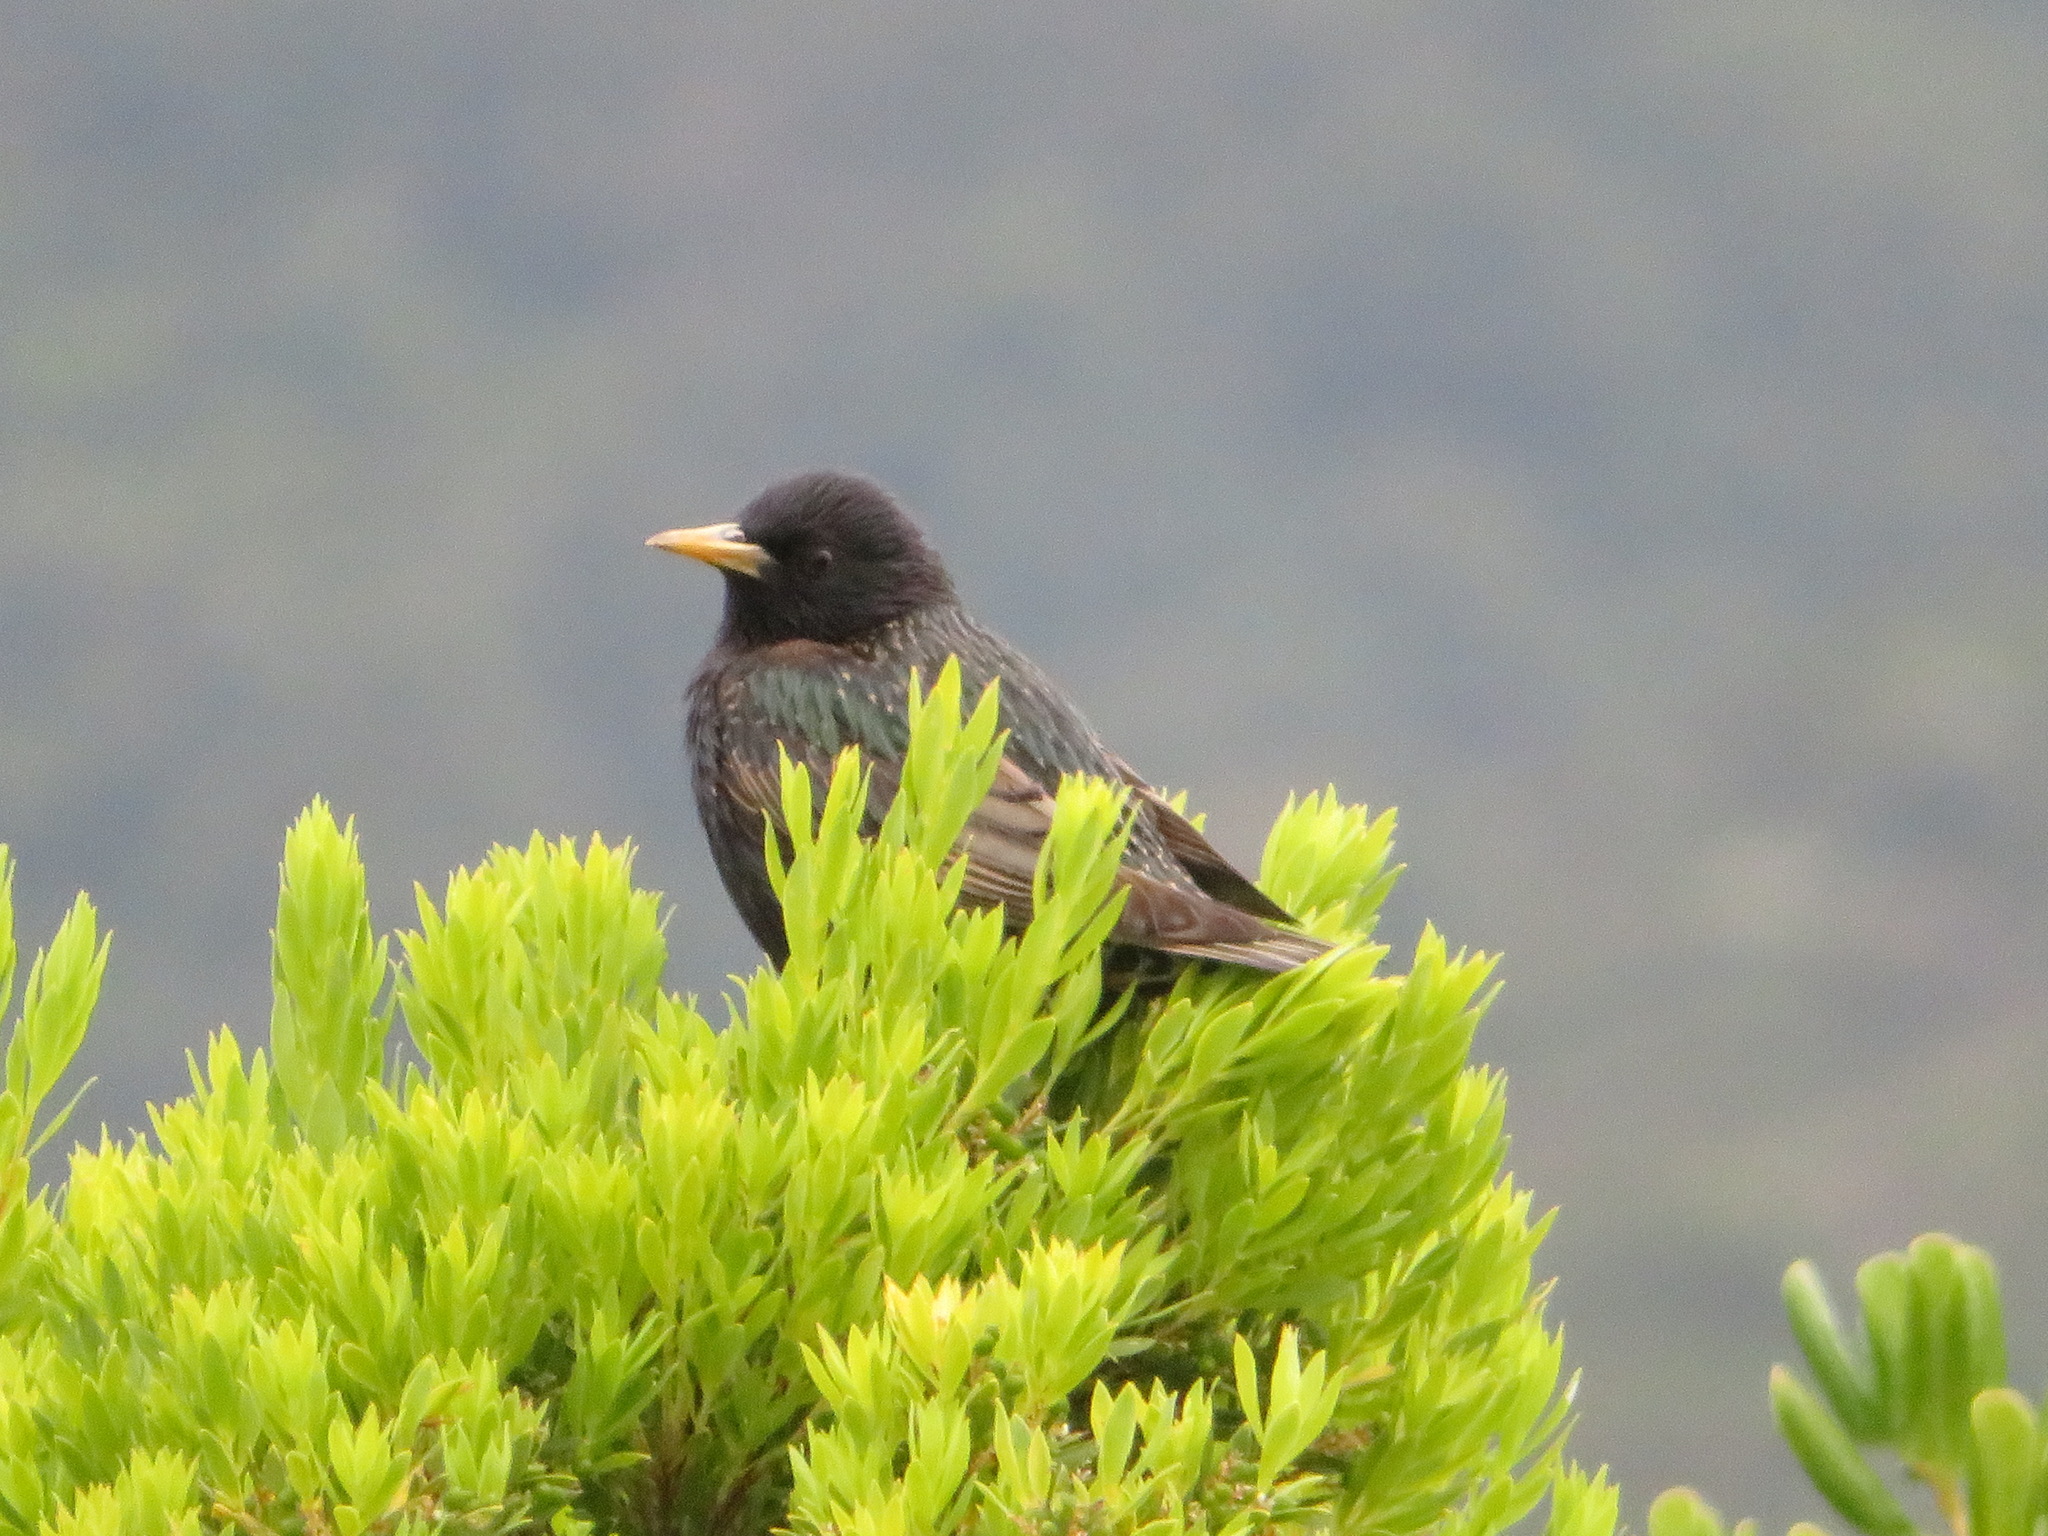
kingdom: Animalia
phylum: Chordata
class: Aves
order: Passeriformes
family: Sturnidae
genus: Sturnus
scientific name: Sturnus vulgaris
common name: Common starling
